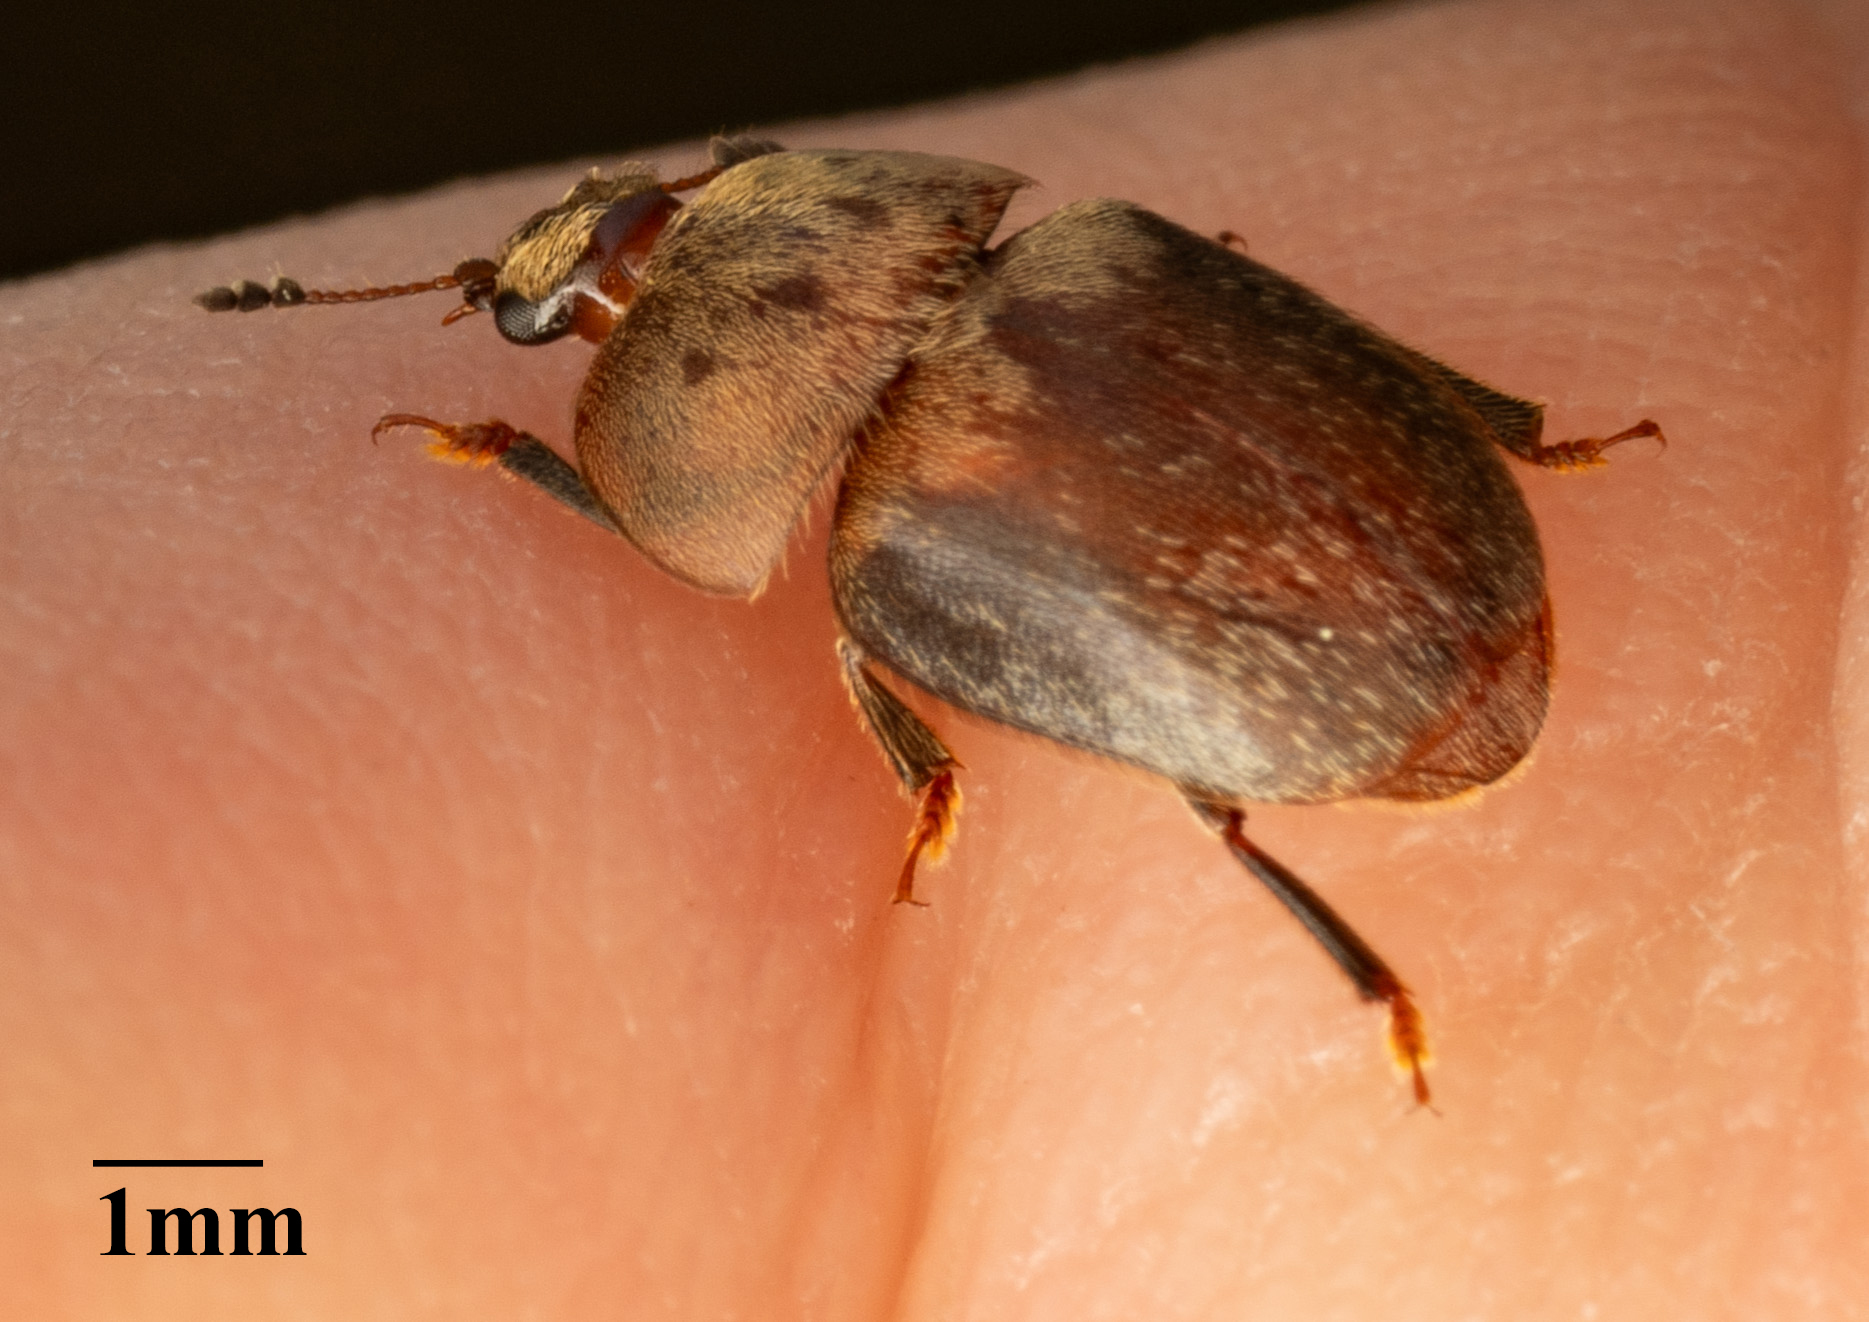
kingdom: Animalia
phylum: Arthropoda
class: Insecta
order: Coleoptera
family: Nitidulidae
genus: Cychramus
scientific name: Cychramus variegatus
